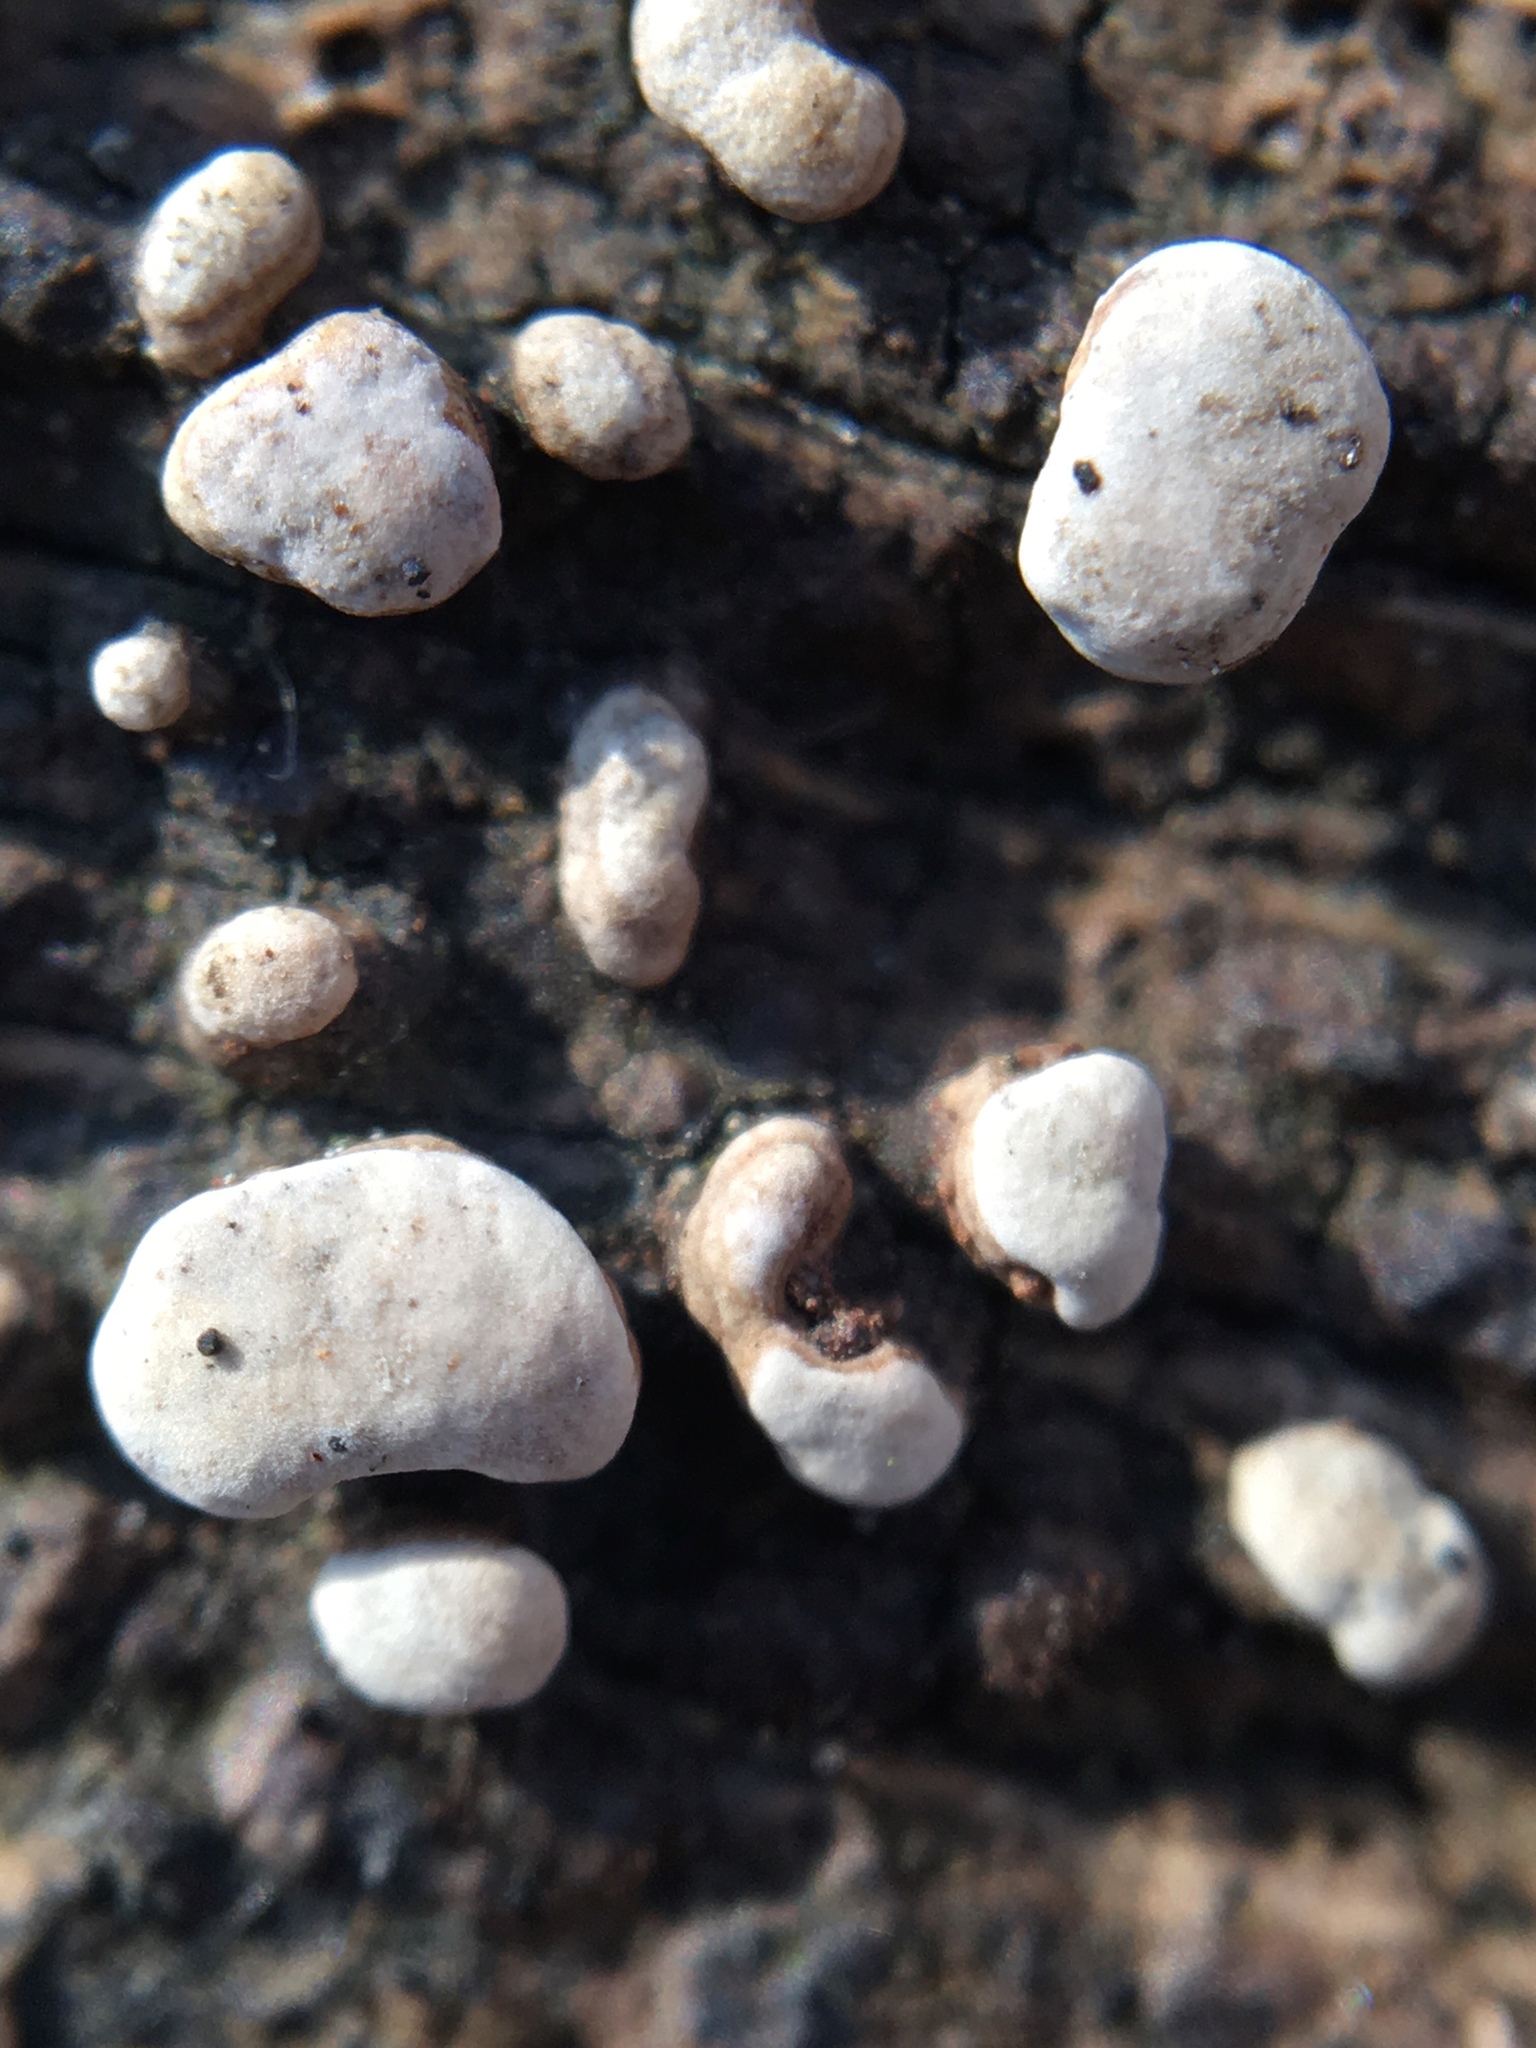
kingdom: Fungi
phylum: Basidiomycota
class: Agaricomycetes
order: Russulales
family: Stereaceae
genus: Xylobolus
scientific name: Xylobolus frustulatus
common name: Ceramic parchment
